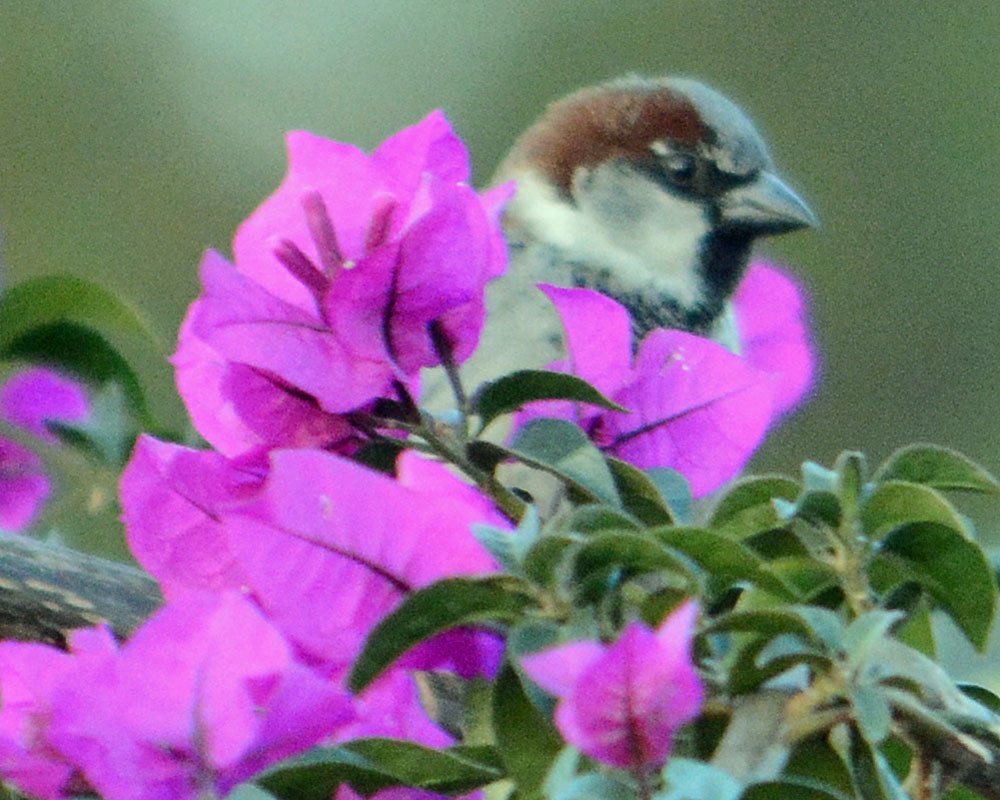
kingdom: Animalia
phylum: Chordata
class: Aves
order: Passeriformes
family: Passeridae
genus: Passer
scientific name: Passer domesticus
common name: House sparrow
